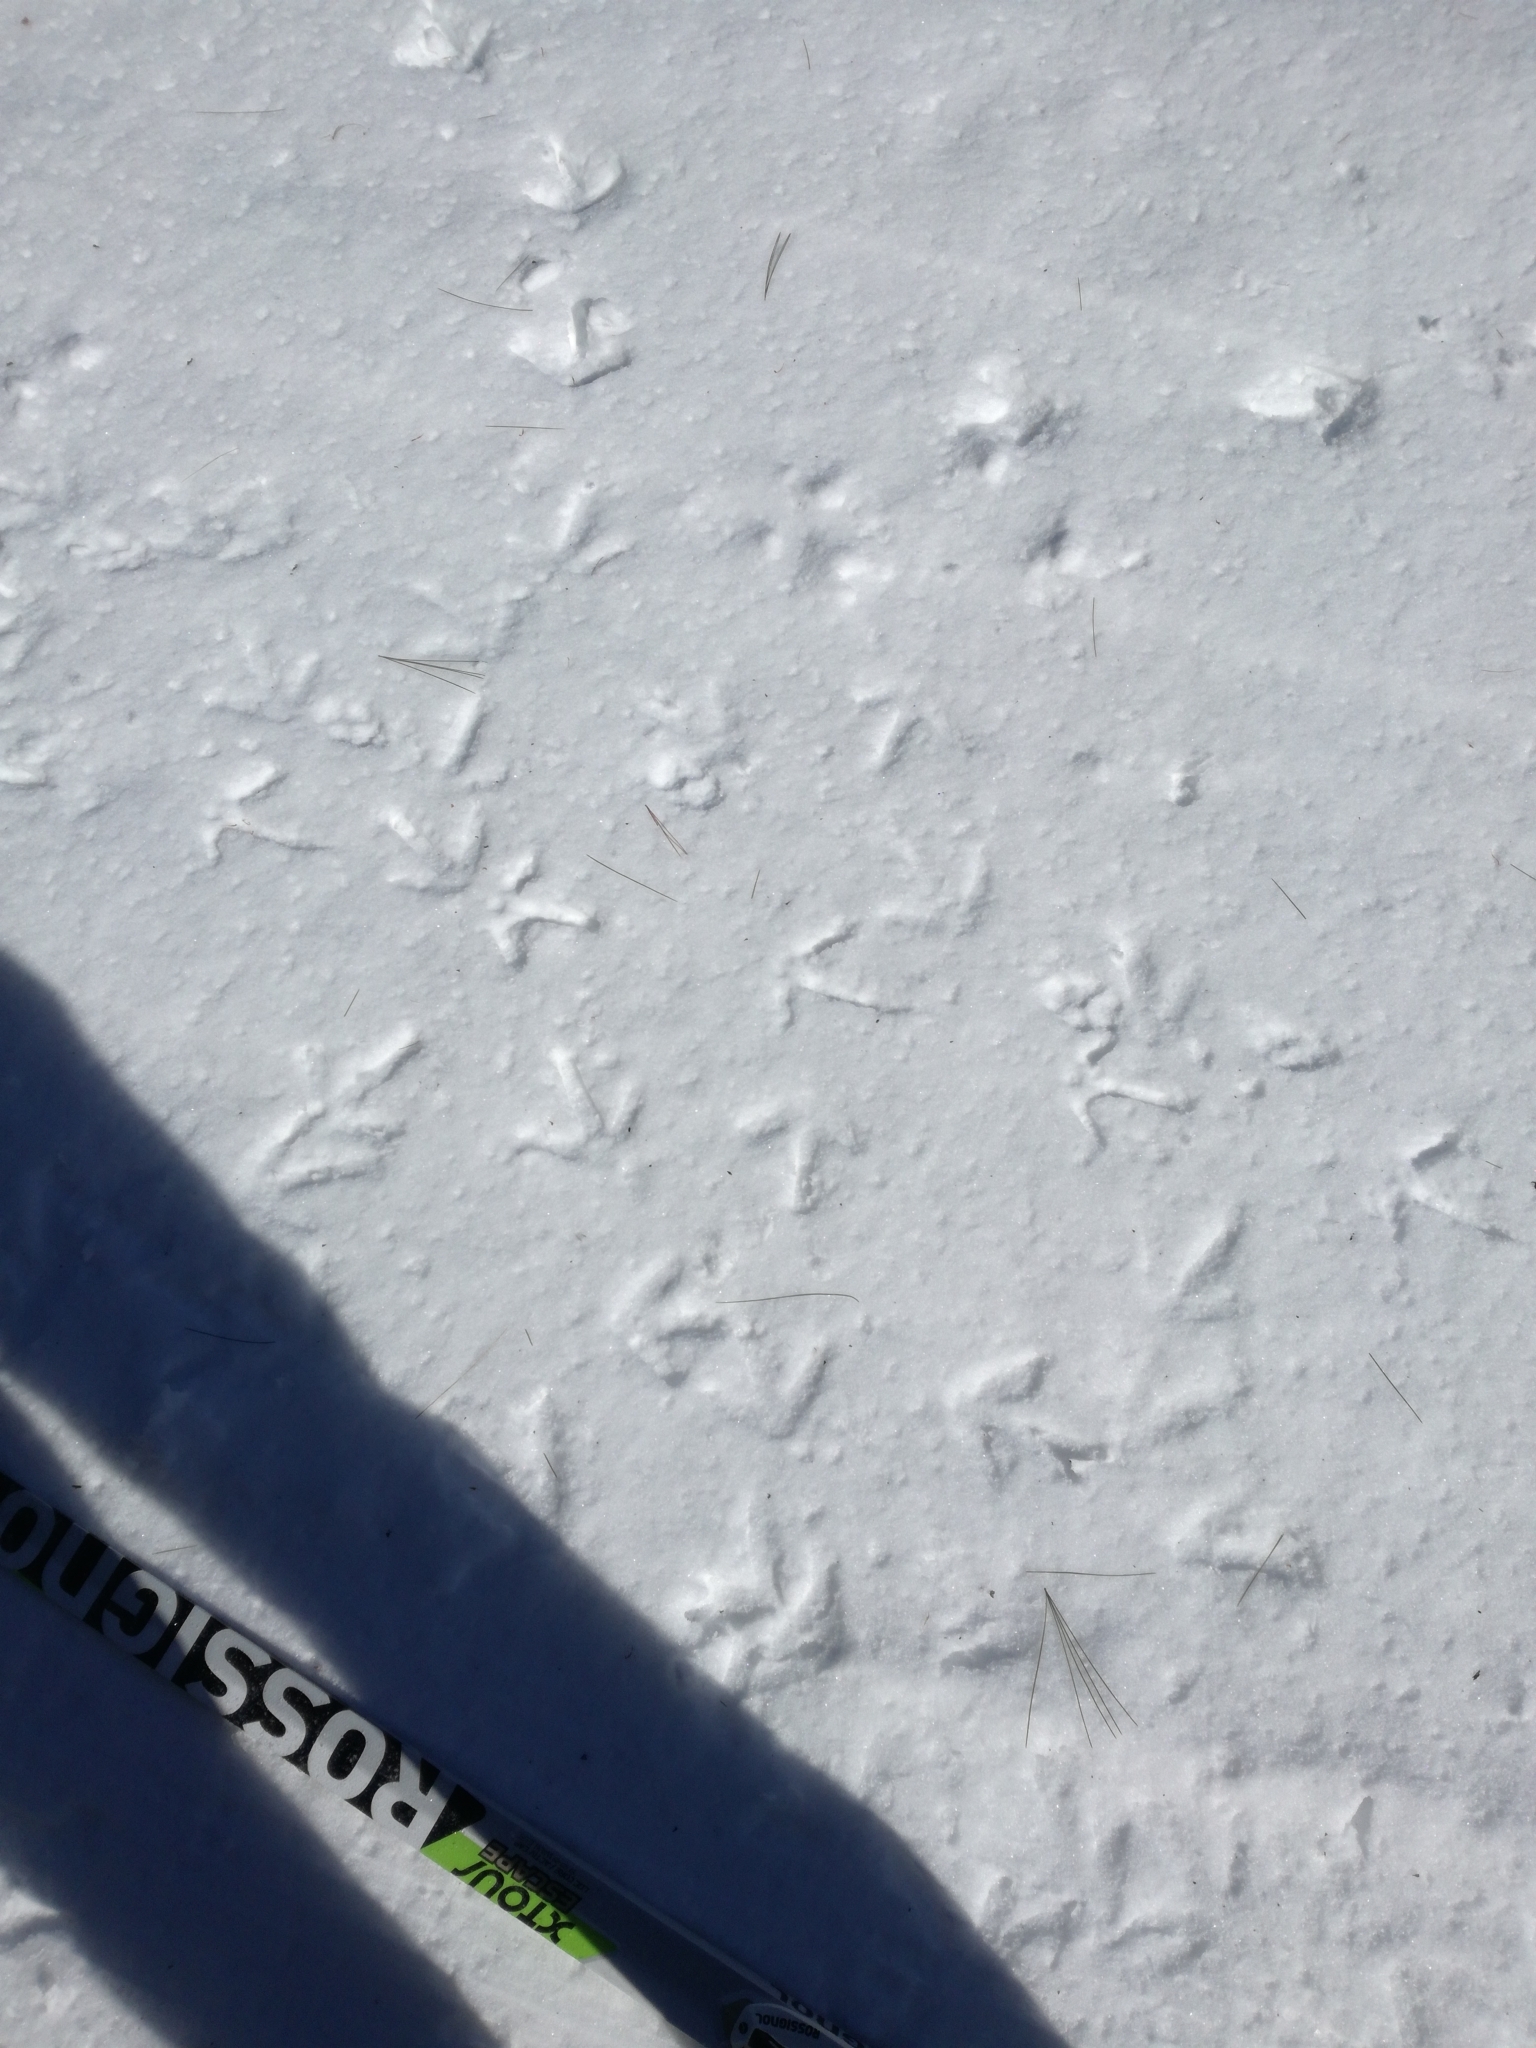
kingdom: Animalia
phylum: Chordata
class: Aves
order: Galliformes
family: Phasianidae
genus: Bonasa
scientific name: Bonasa umbellus
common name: Ruffed grouse
